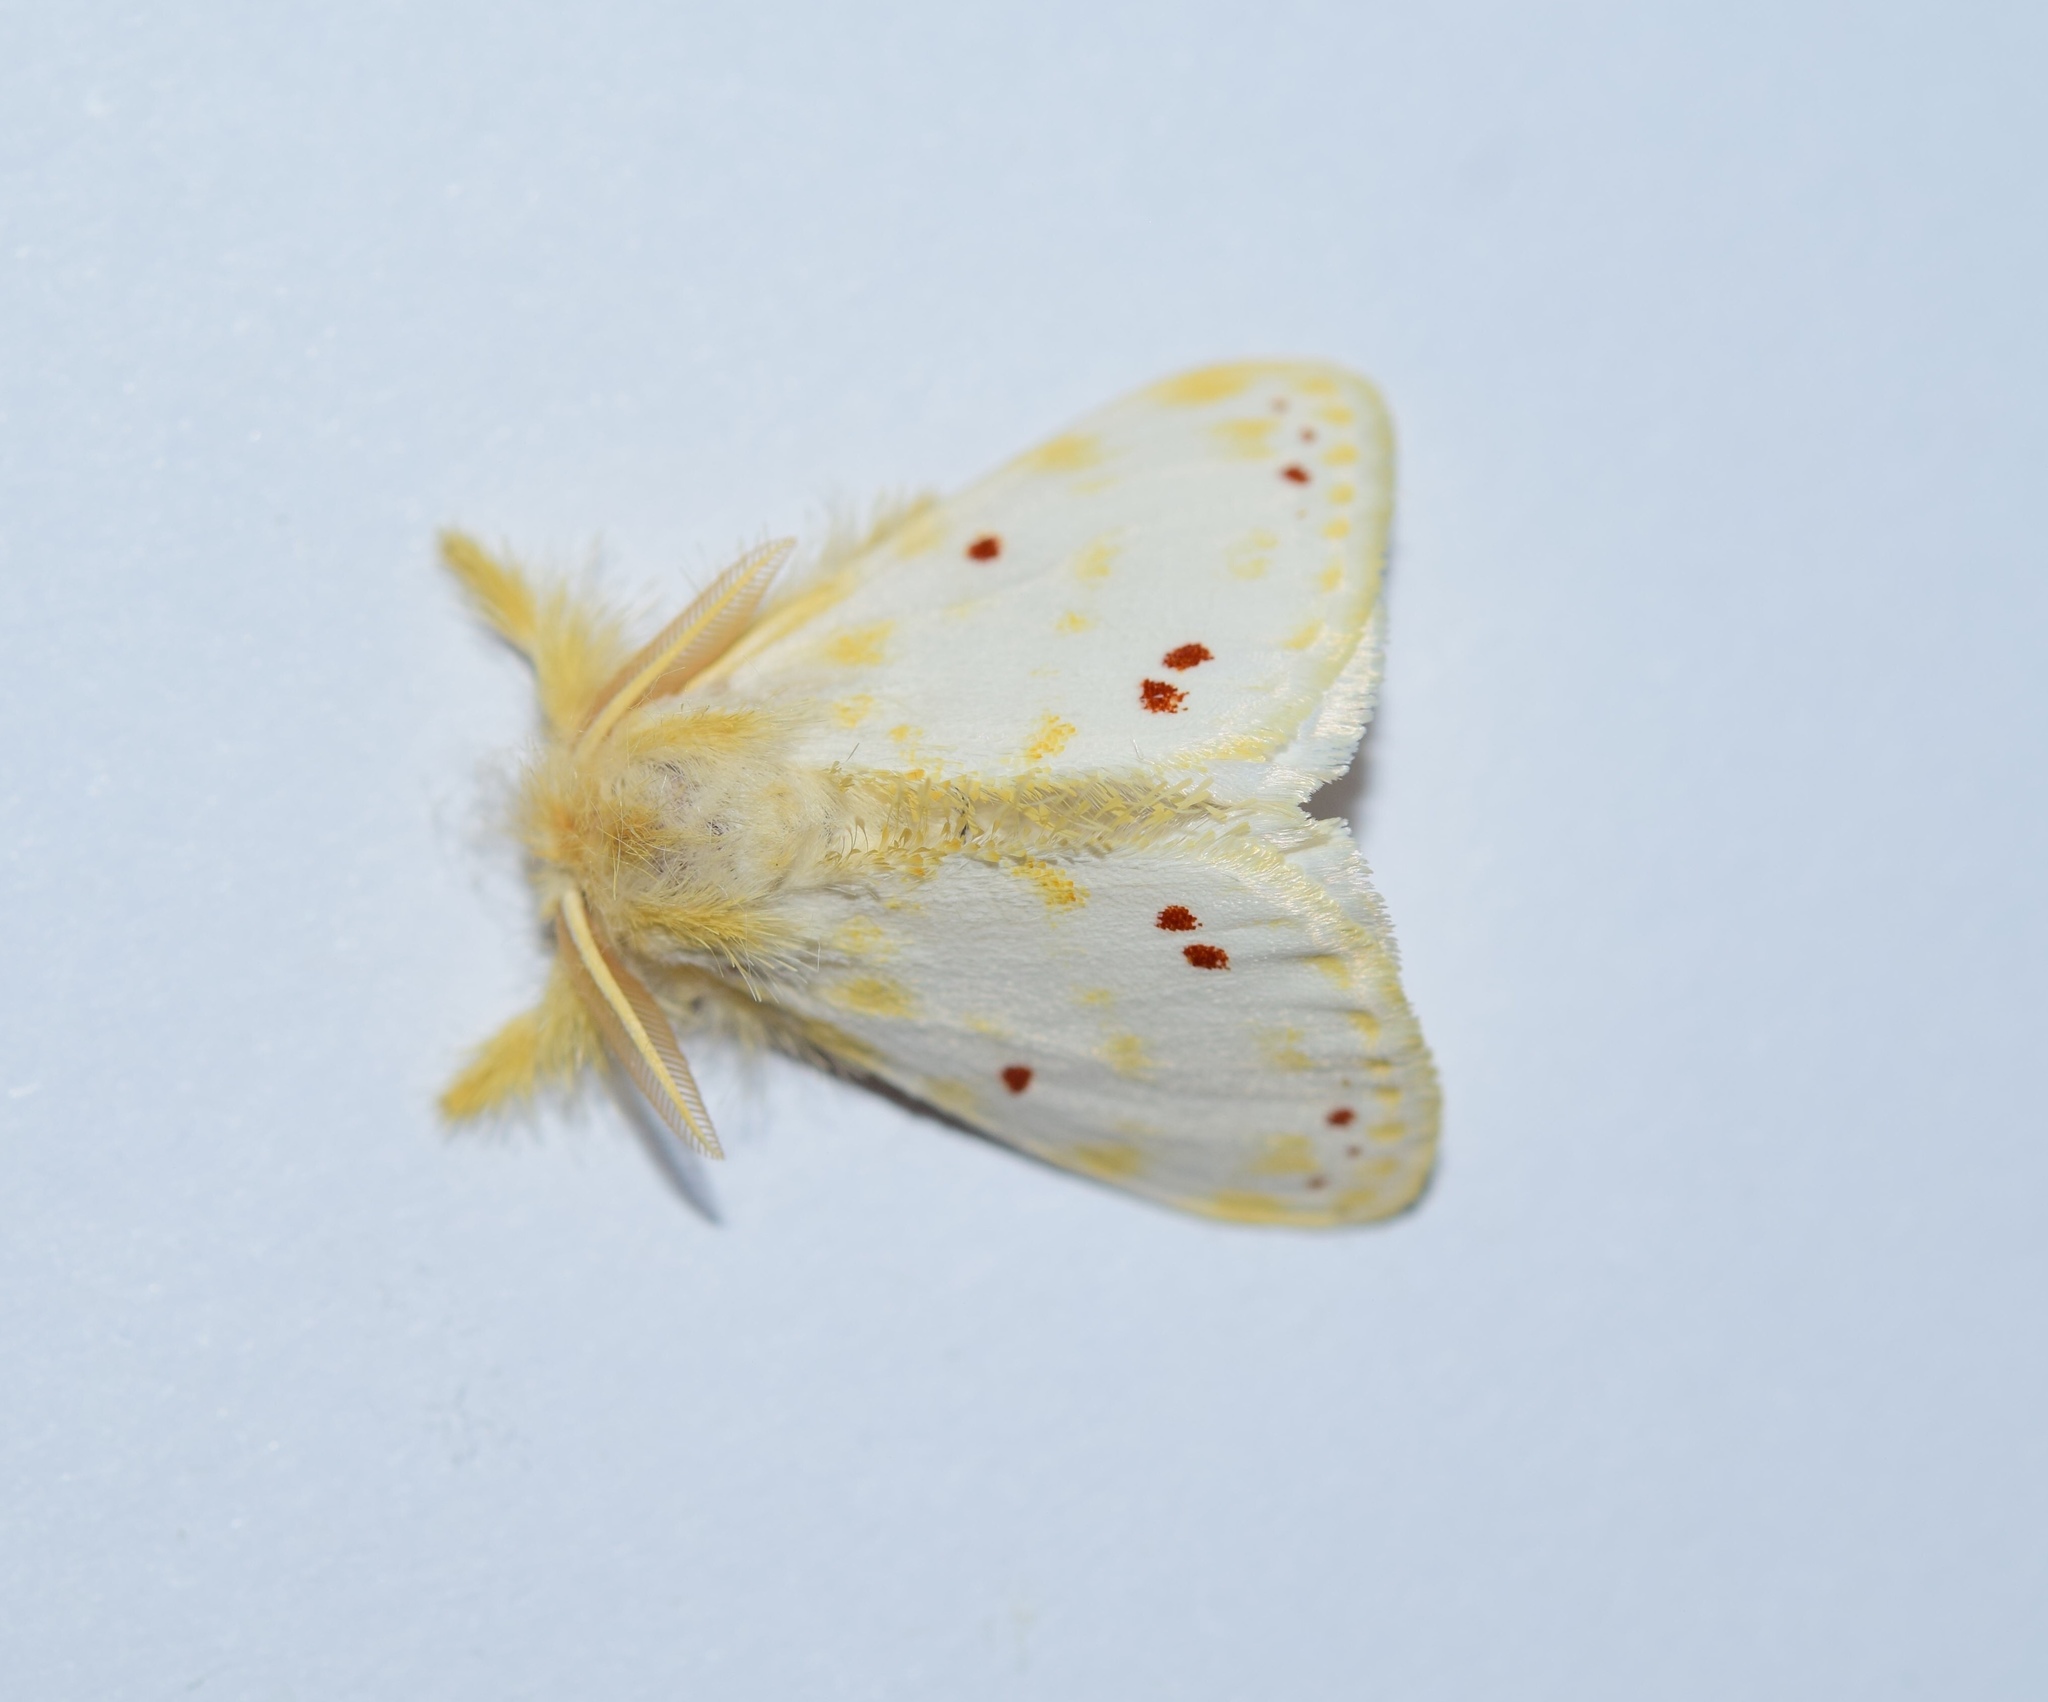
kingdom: Animalia
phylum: Arthropoda
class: Insecta
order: Lepidoptera
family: Erebidae
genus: Euproctis
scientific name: Euproctis rufopunctata
